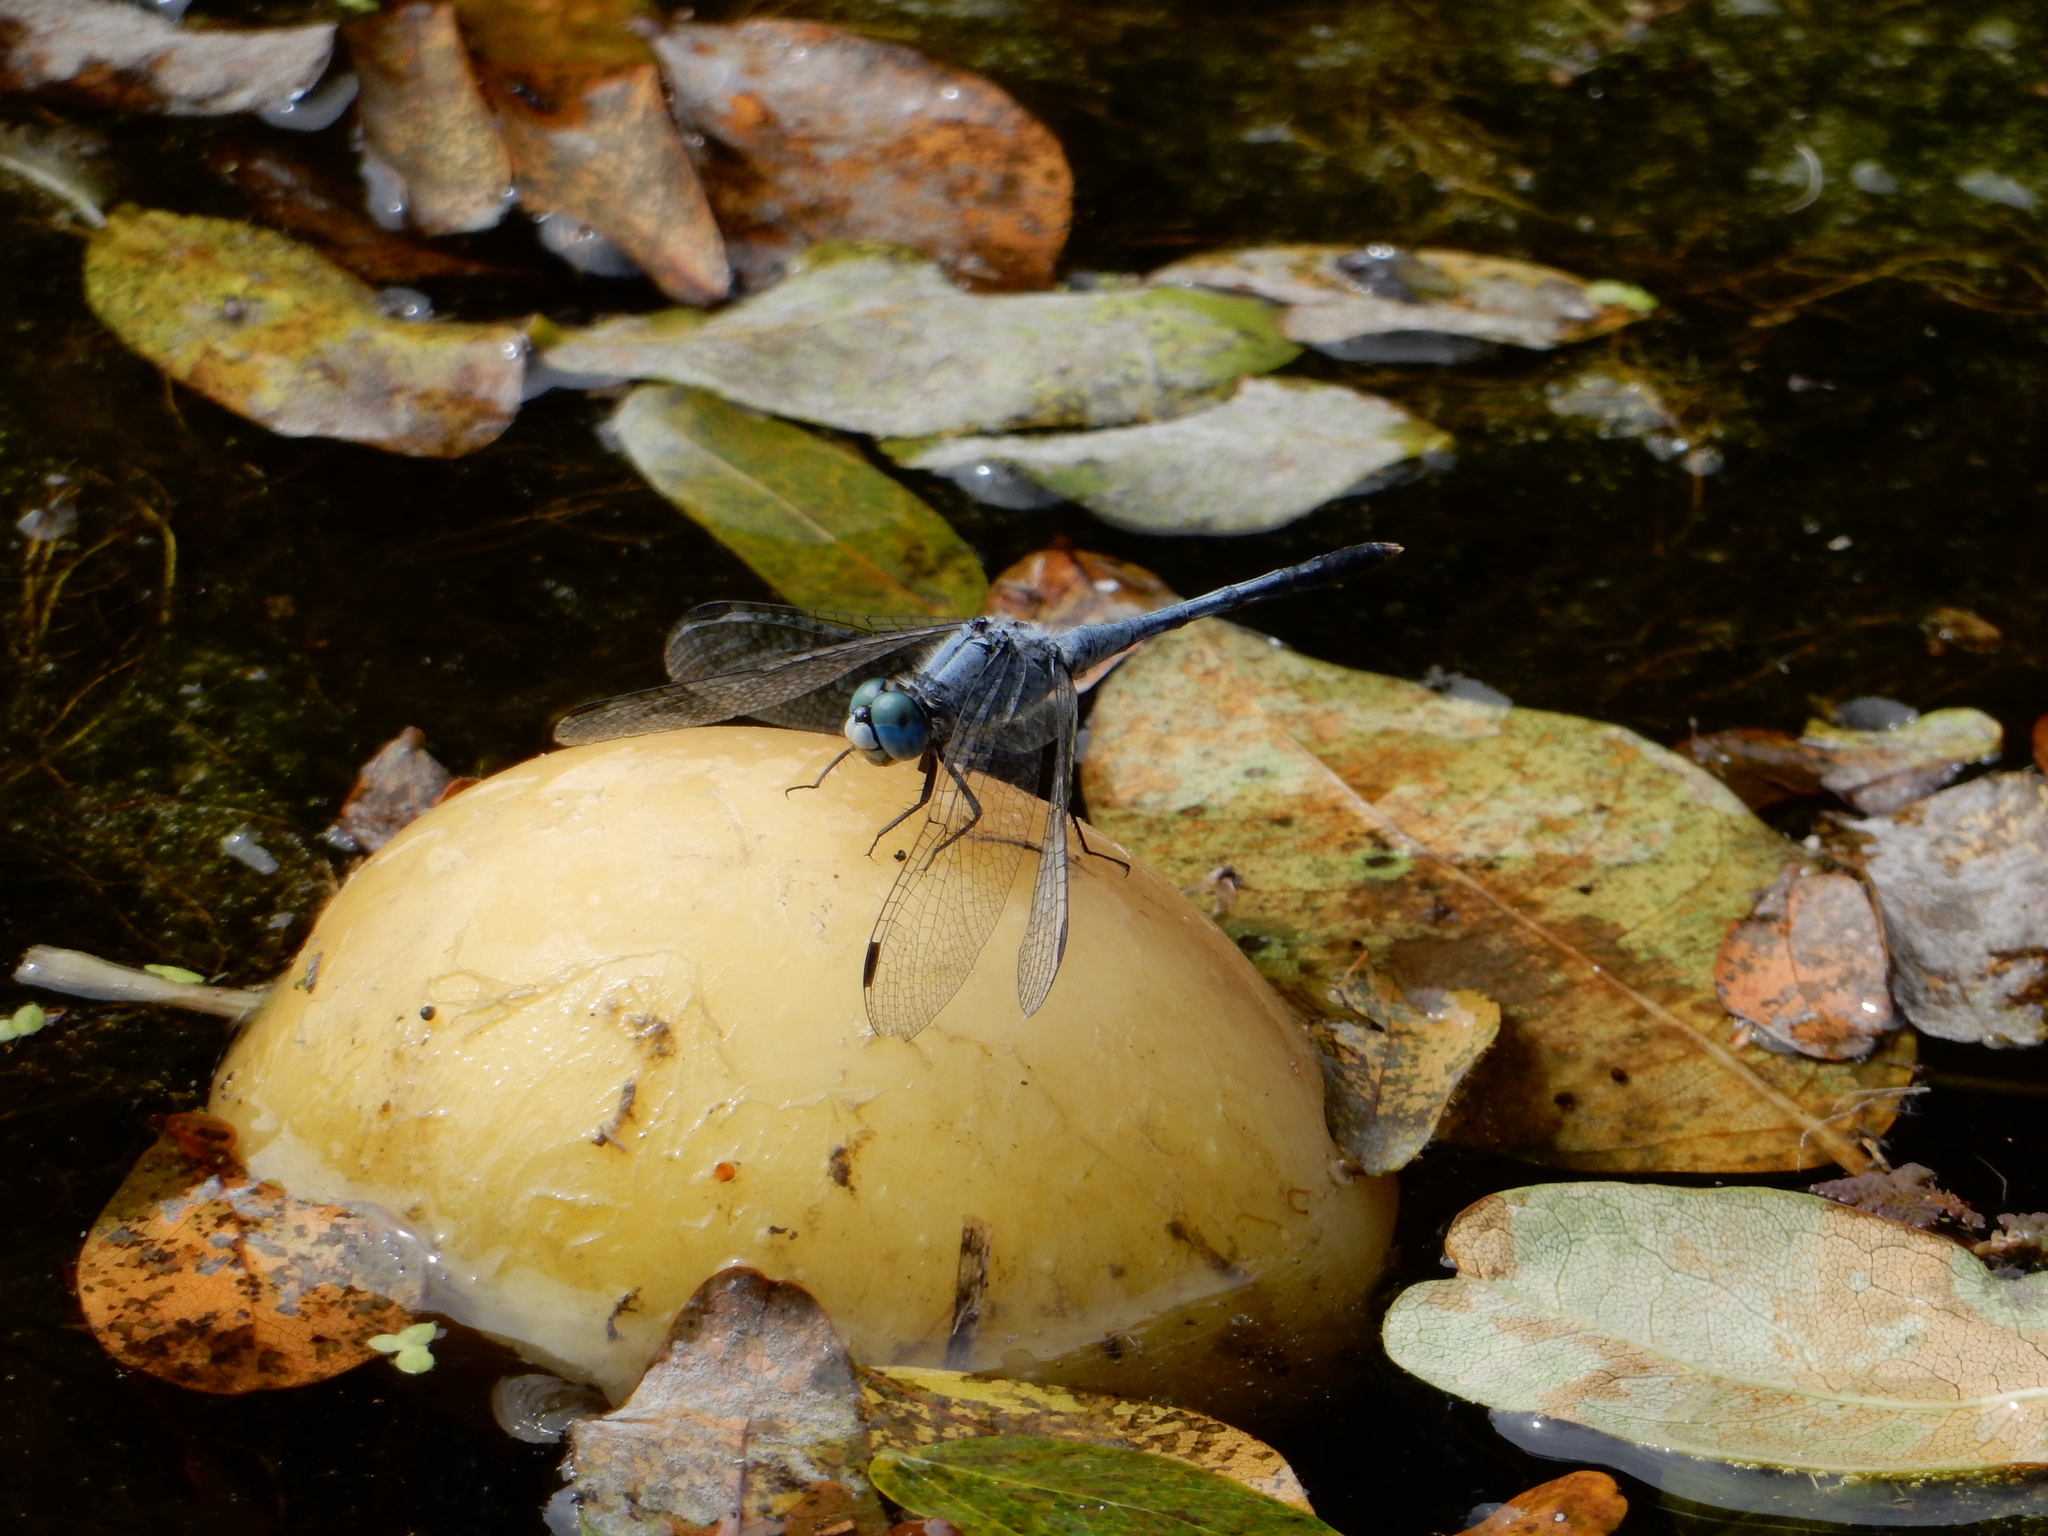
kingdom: Animalia
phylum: Arthropoda
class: Insecta
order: Odonata
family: Libellulidae
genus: Diplacodes
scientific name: Diplacodes trivialis
